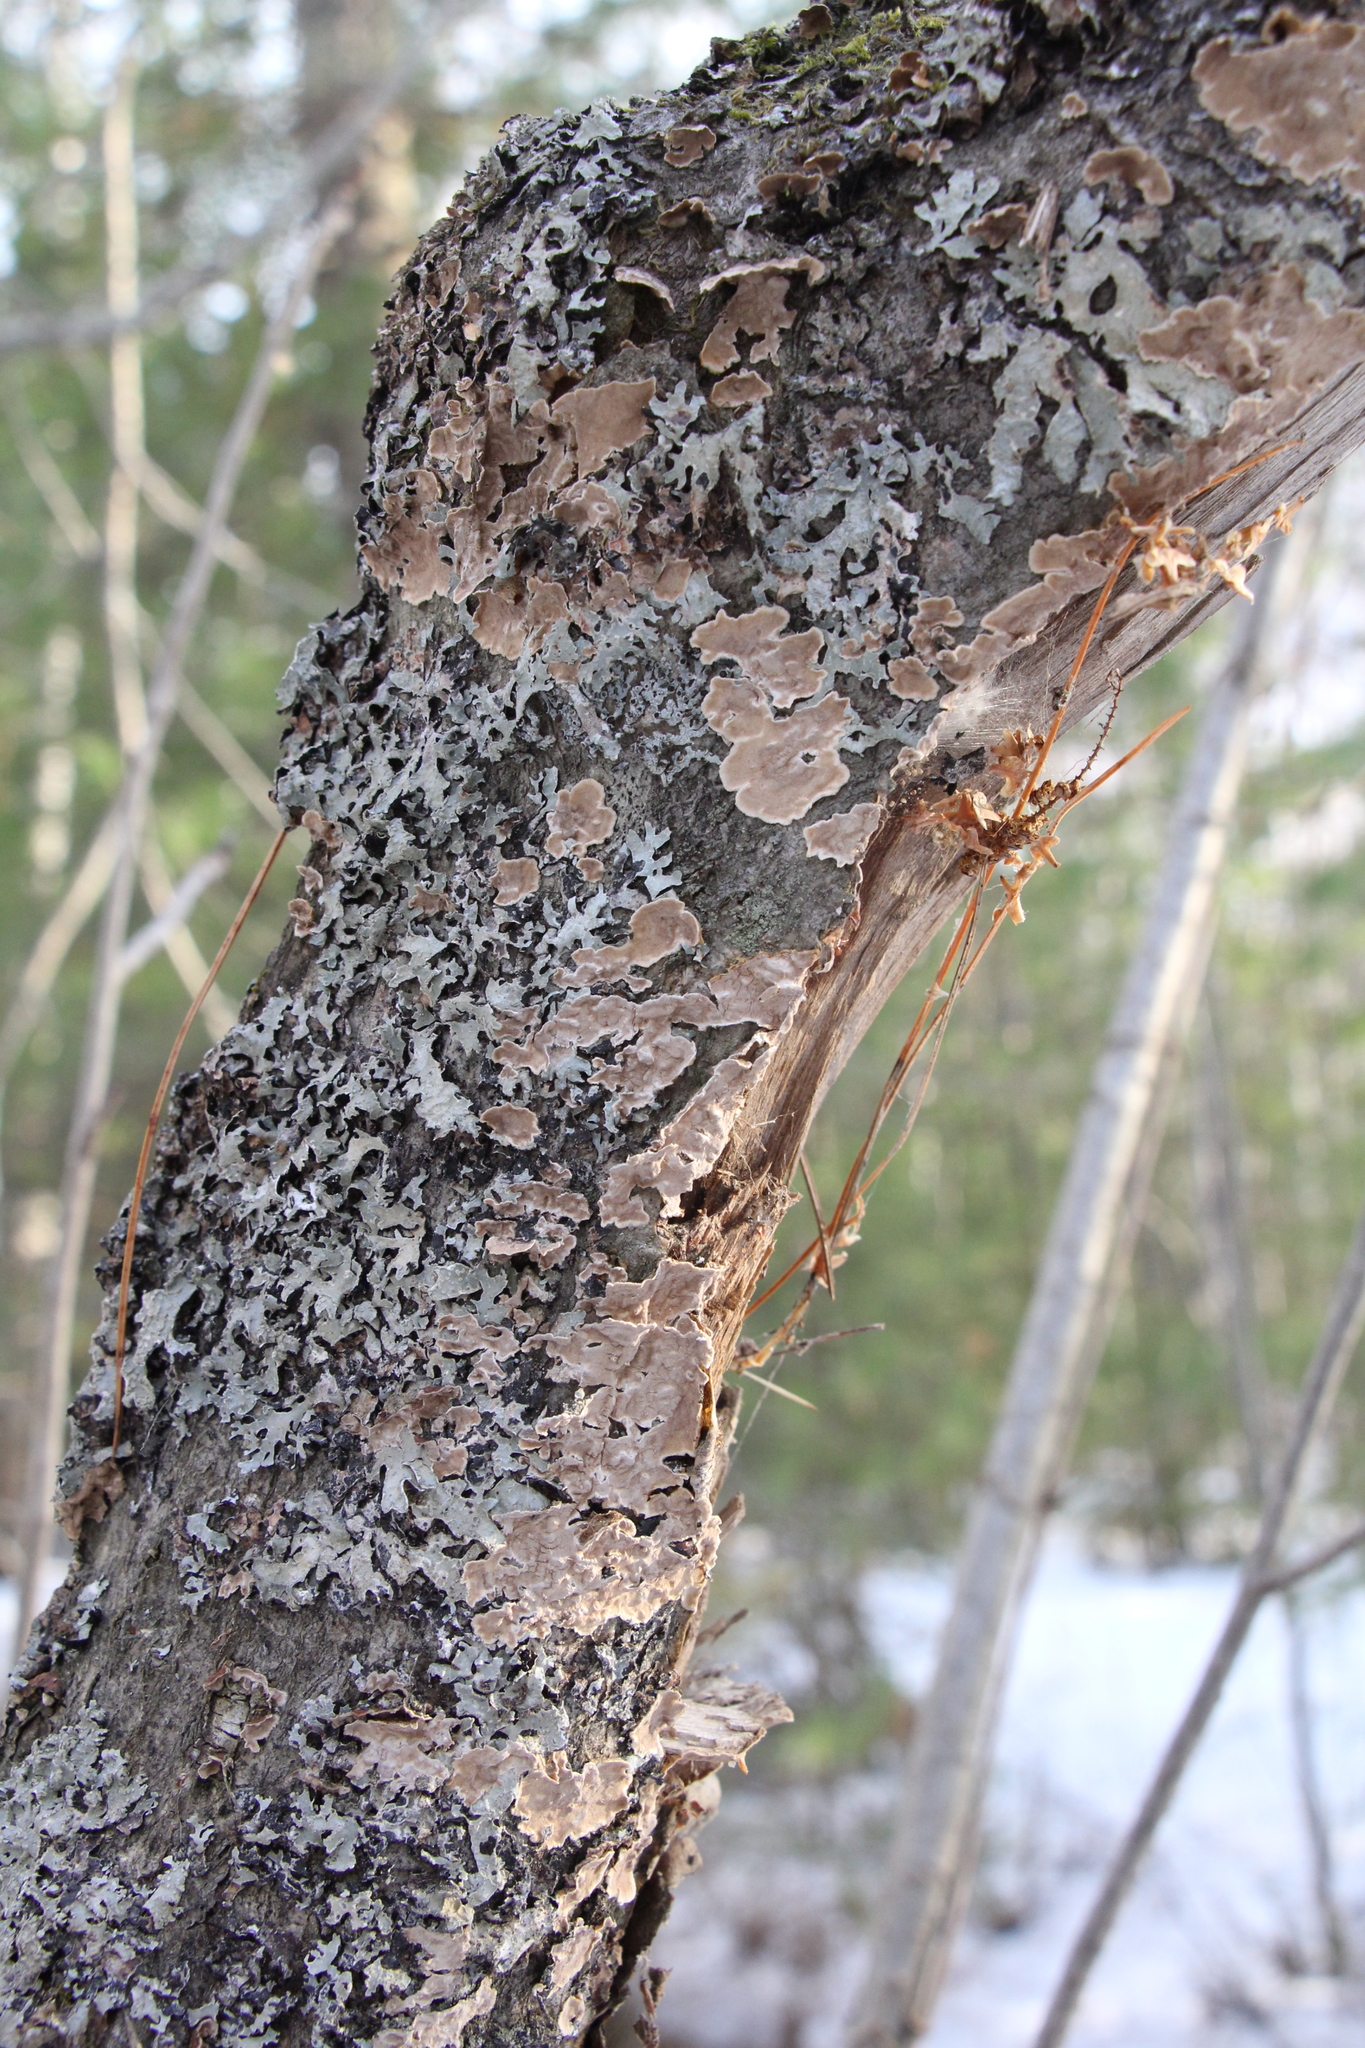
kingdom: Fungi
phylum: Basidiomycota
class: Agaricomycetes
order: Hymenochaetales
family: Hymenochaetaceae
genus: Hydnoporia
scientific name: Hydnoporia tabacina
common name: Willow glue
